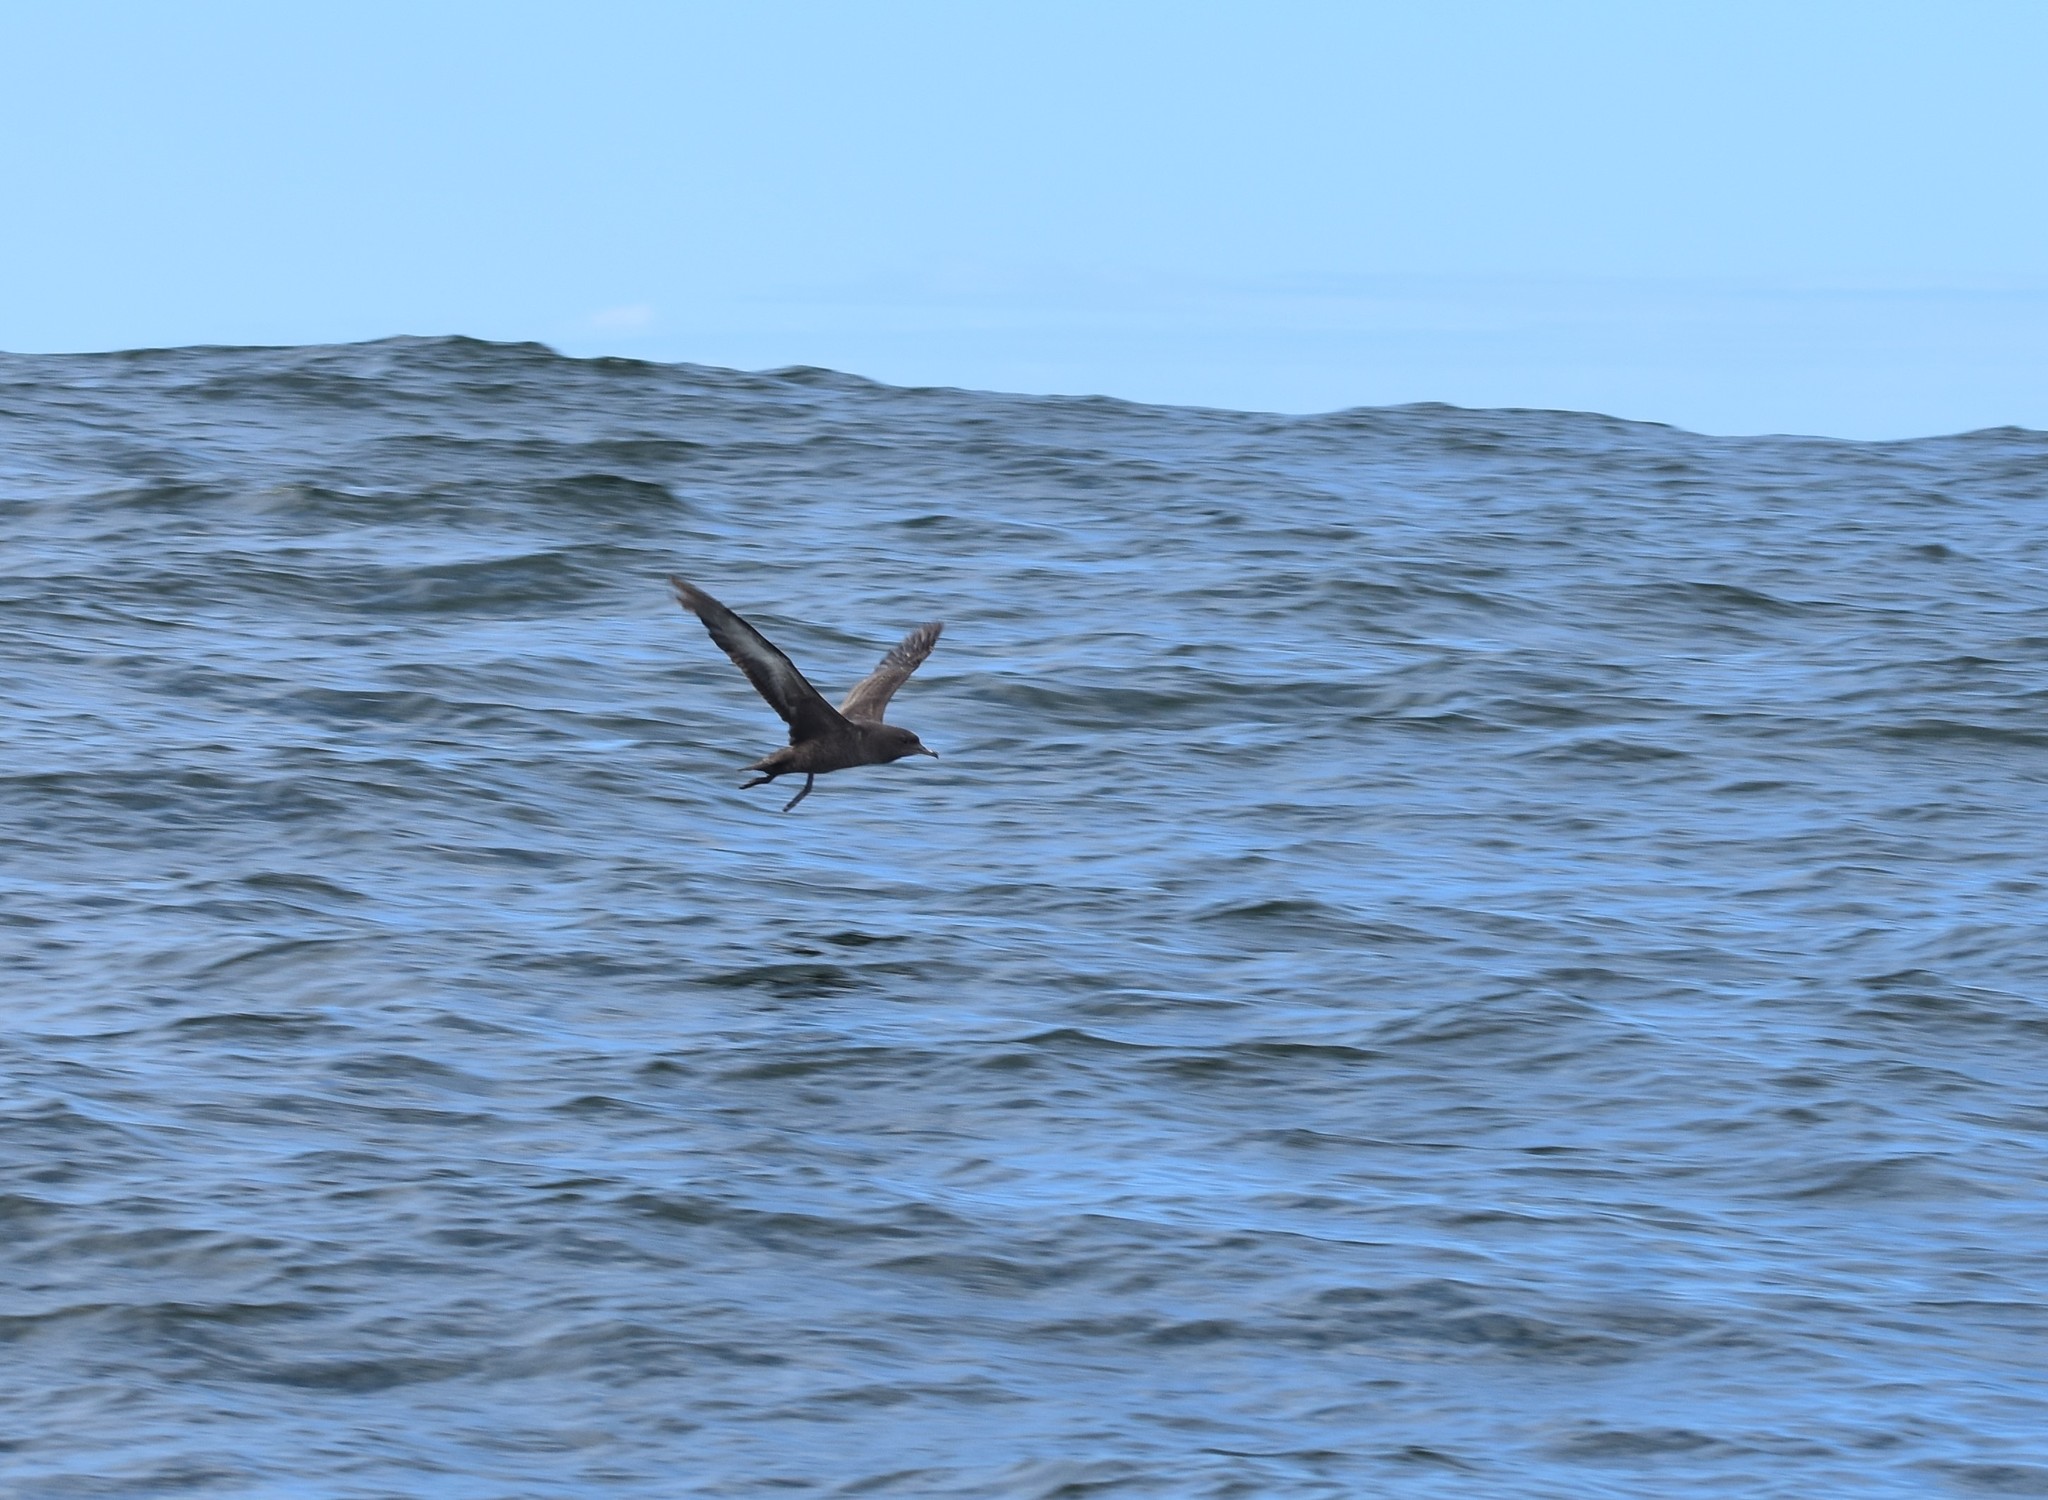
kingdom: Animalia
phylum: Chordata
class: Aves
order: Procellariiformes
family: Procellariidae
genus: Puffinus
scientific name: Puffinus griseus
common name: Sooty shearwater
